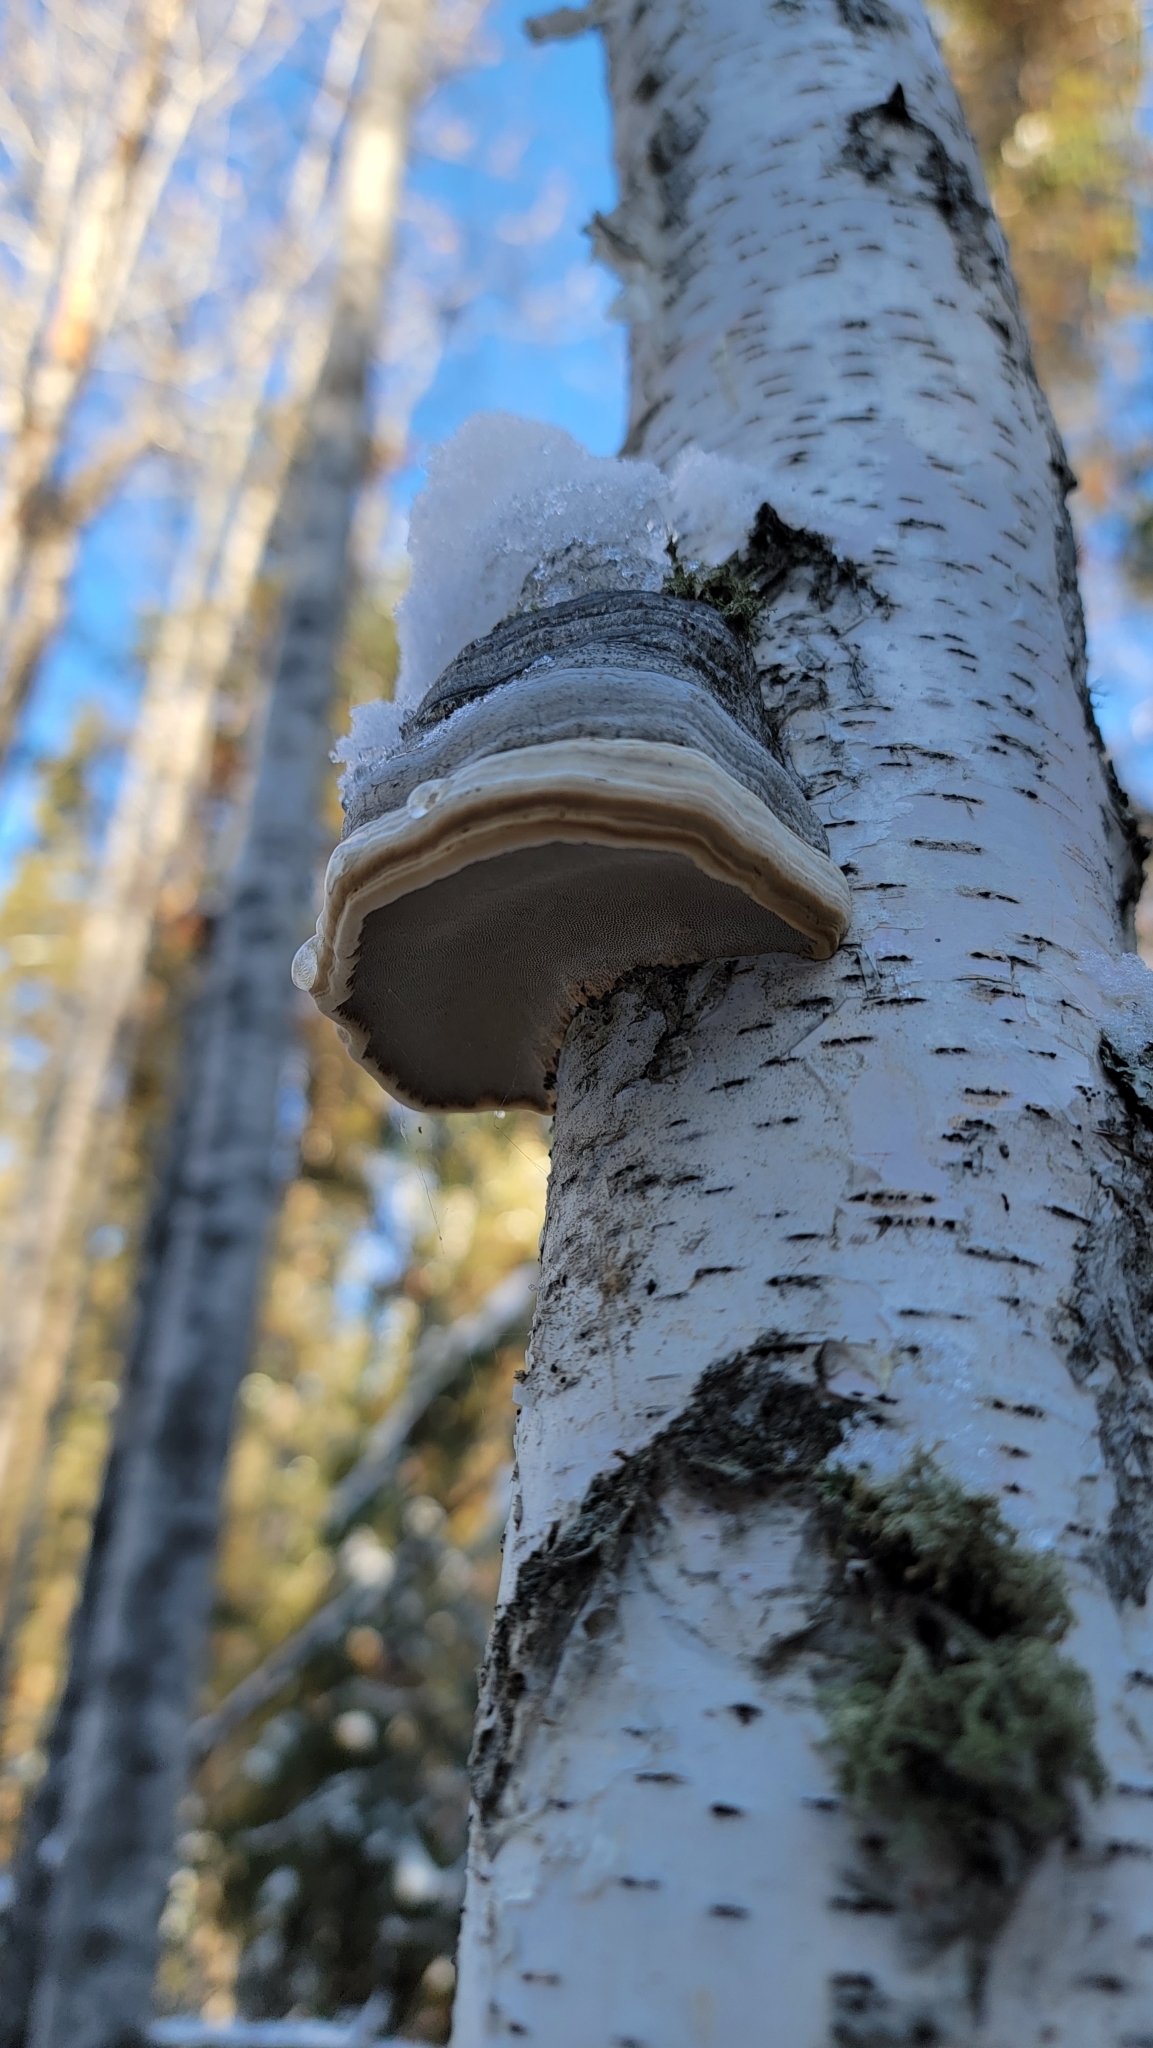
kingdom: Fungi
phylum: Basidiomycota
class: Agaricomycetes
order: Polyporales
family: Polyporaceae
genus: Fomes
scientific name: Fomes fomentarius
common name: Hoof fungus
